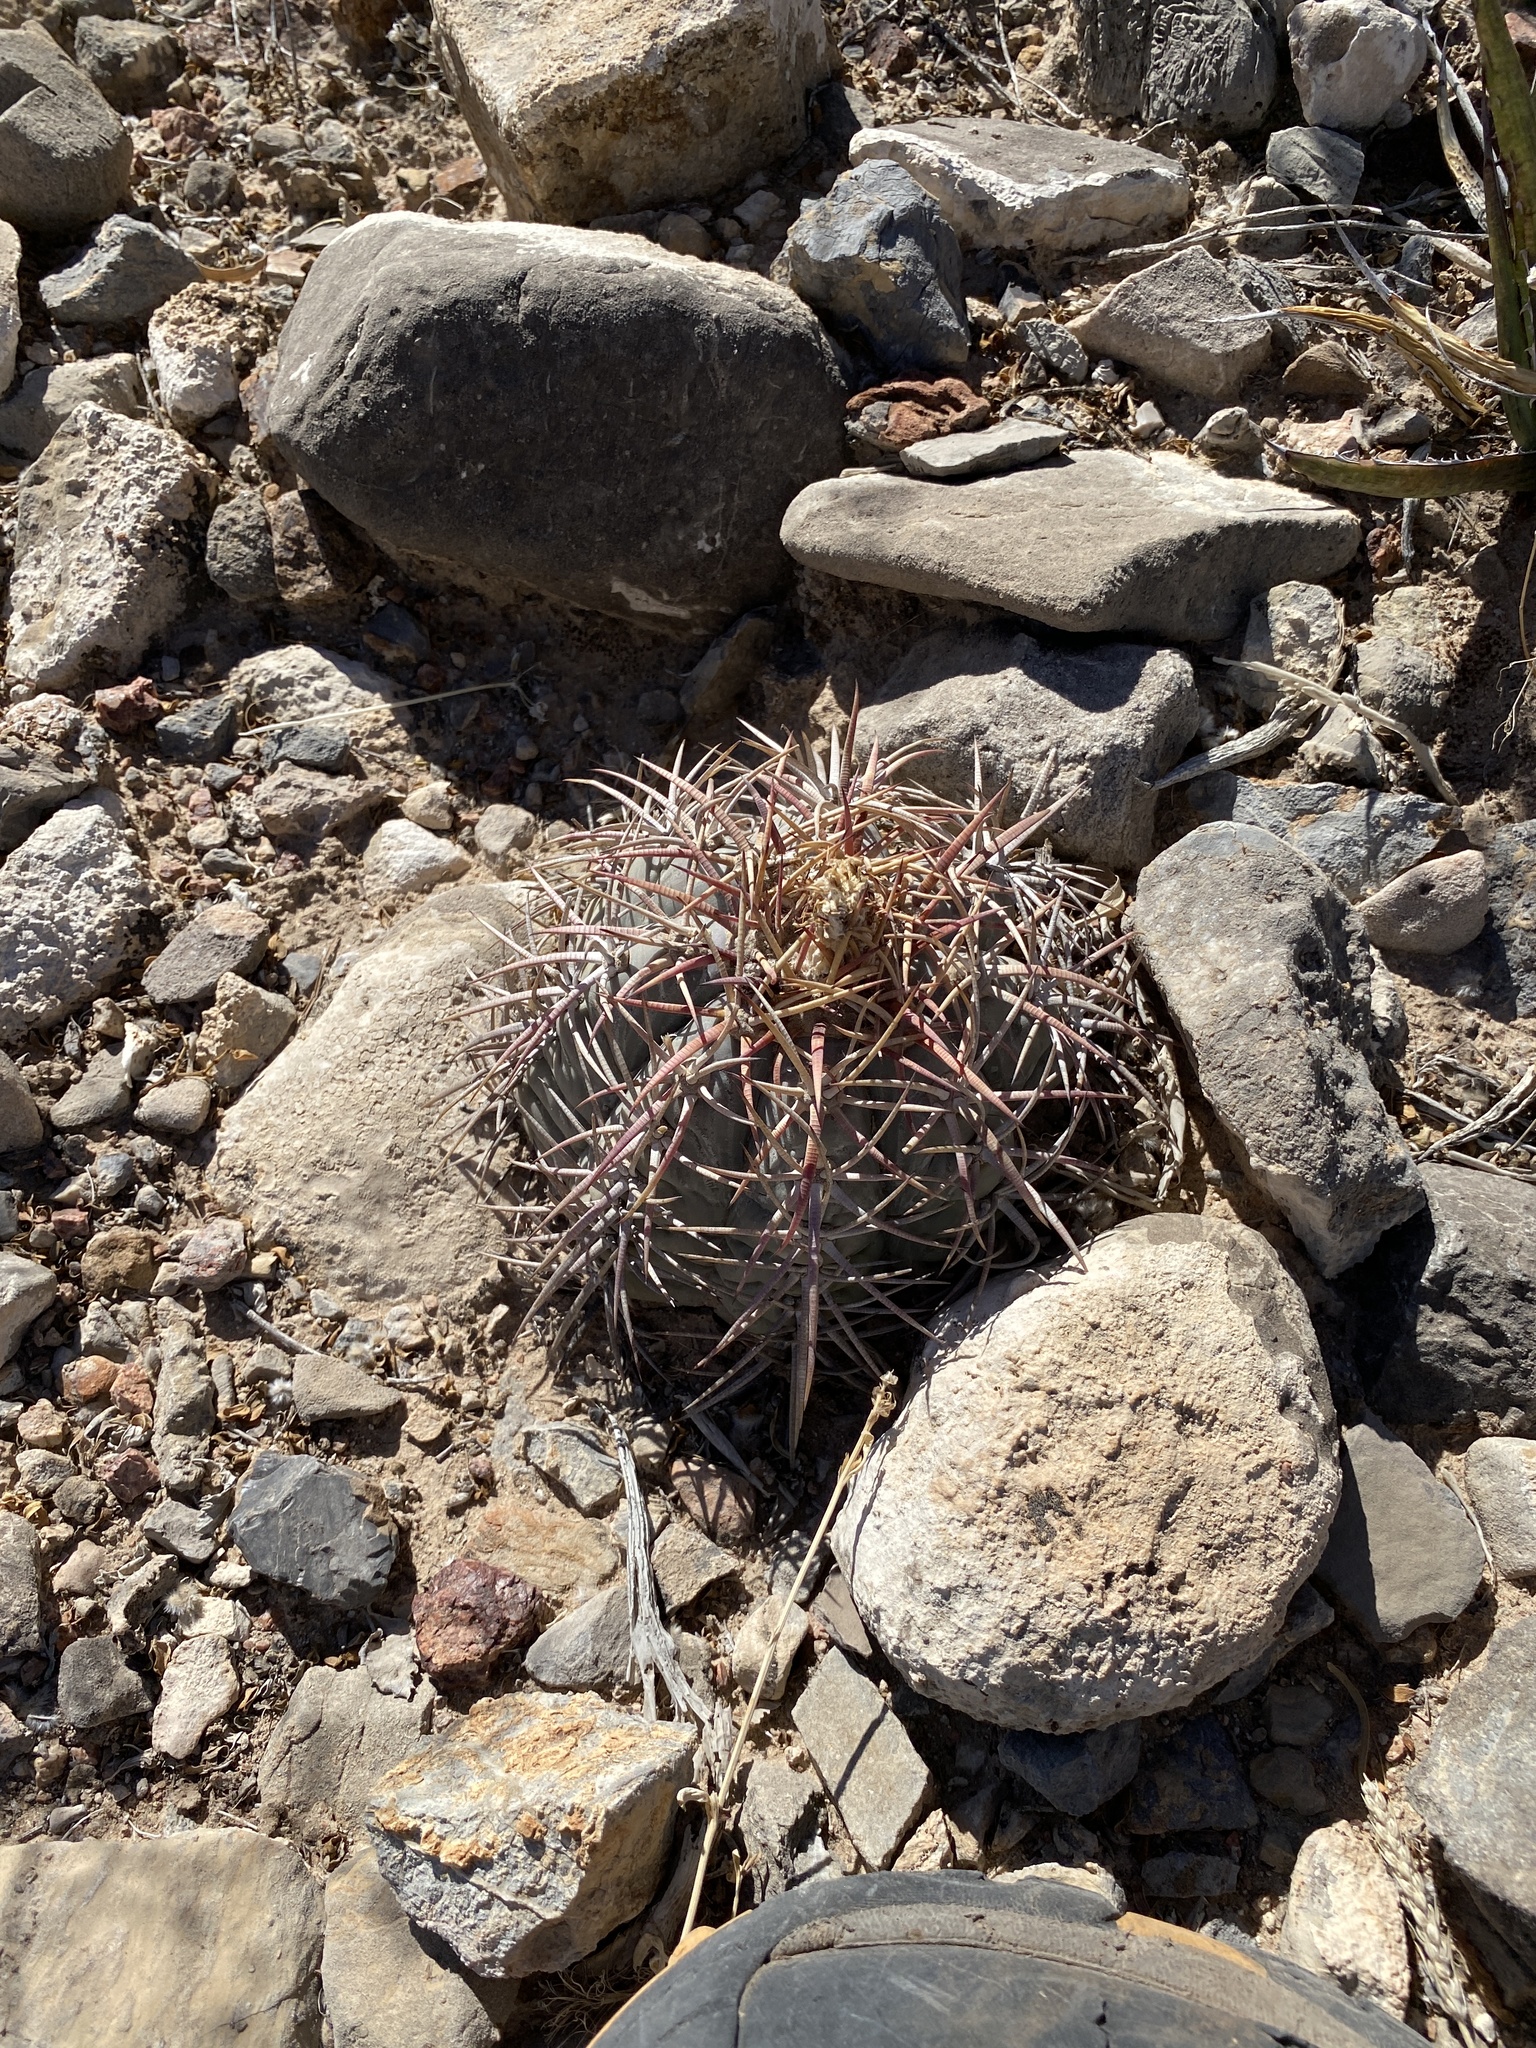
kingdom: Plantae
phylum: Tracheophyta
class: Magnoliopsida
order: Caryophyllales
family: Cactaceae
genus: Echinocactus
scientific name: Echinocactus horizonthalonius
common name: Devilshead
